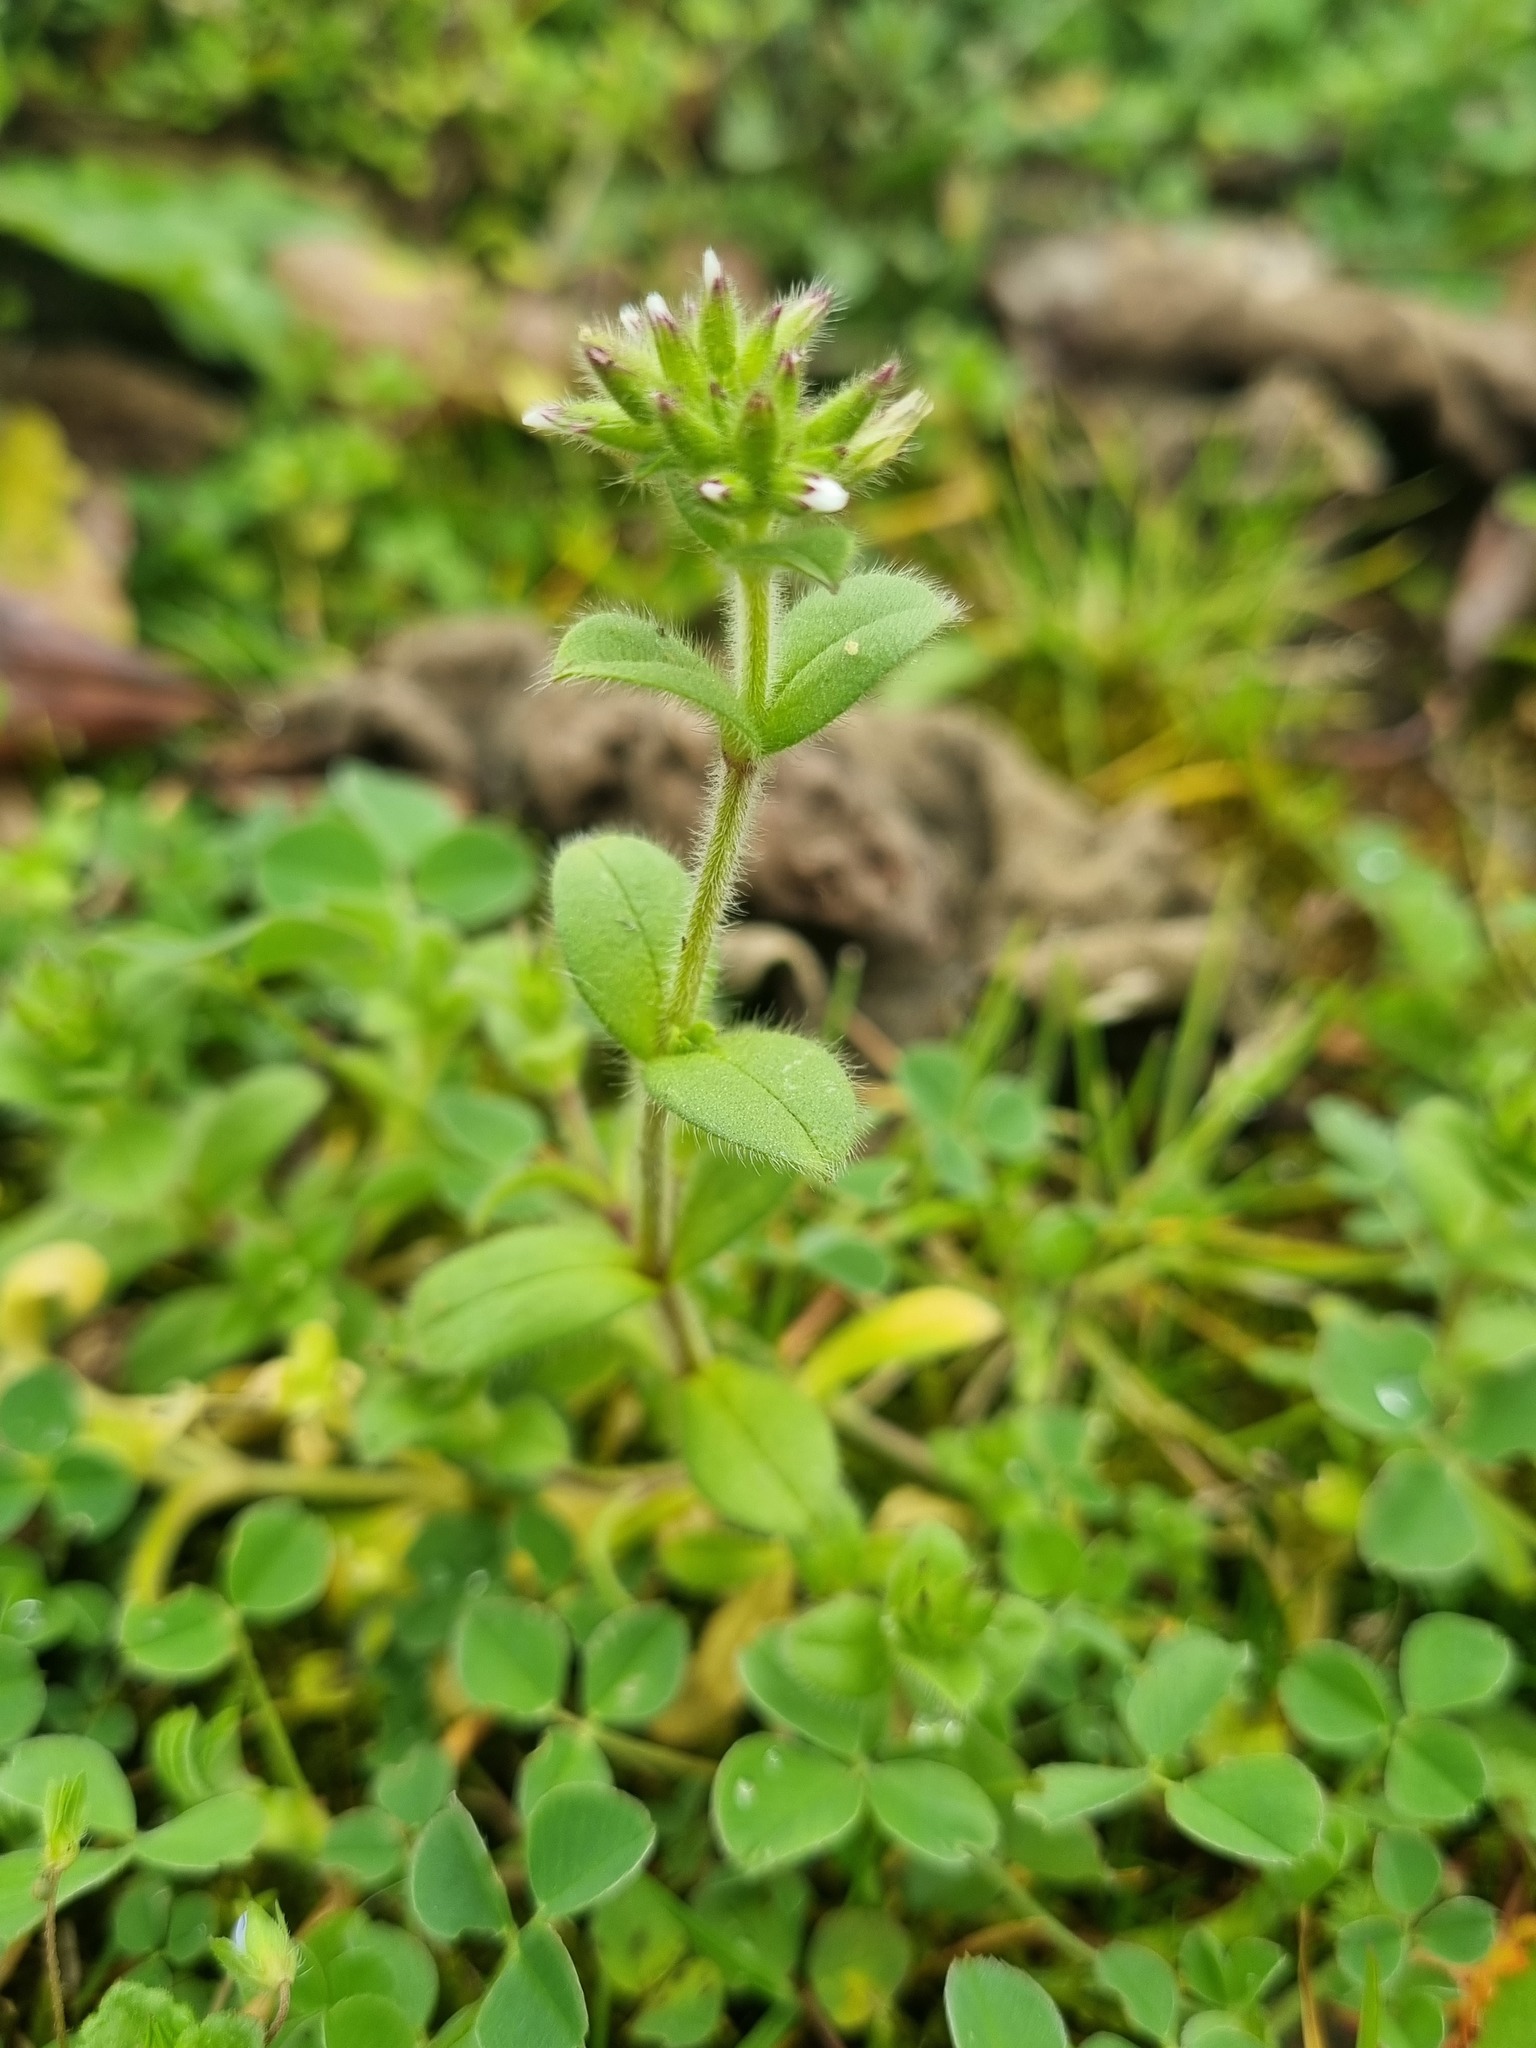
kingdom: Plantae
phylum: Tracheophyta
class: Magnoliopsida
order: Caryophyllales
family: Caryophyllaceae
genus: Cerastium
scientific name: Cerastium glomeratum
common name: Sticky chickweed
